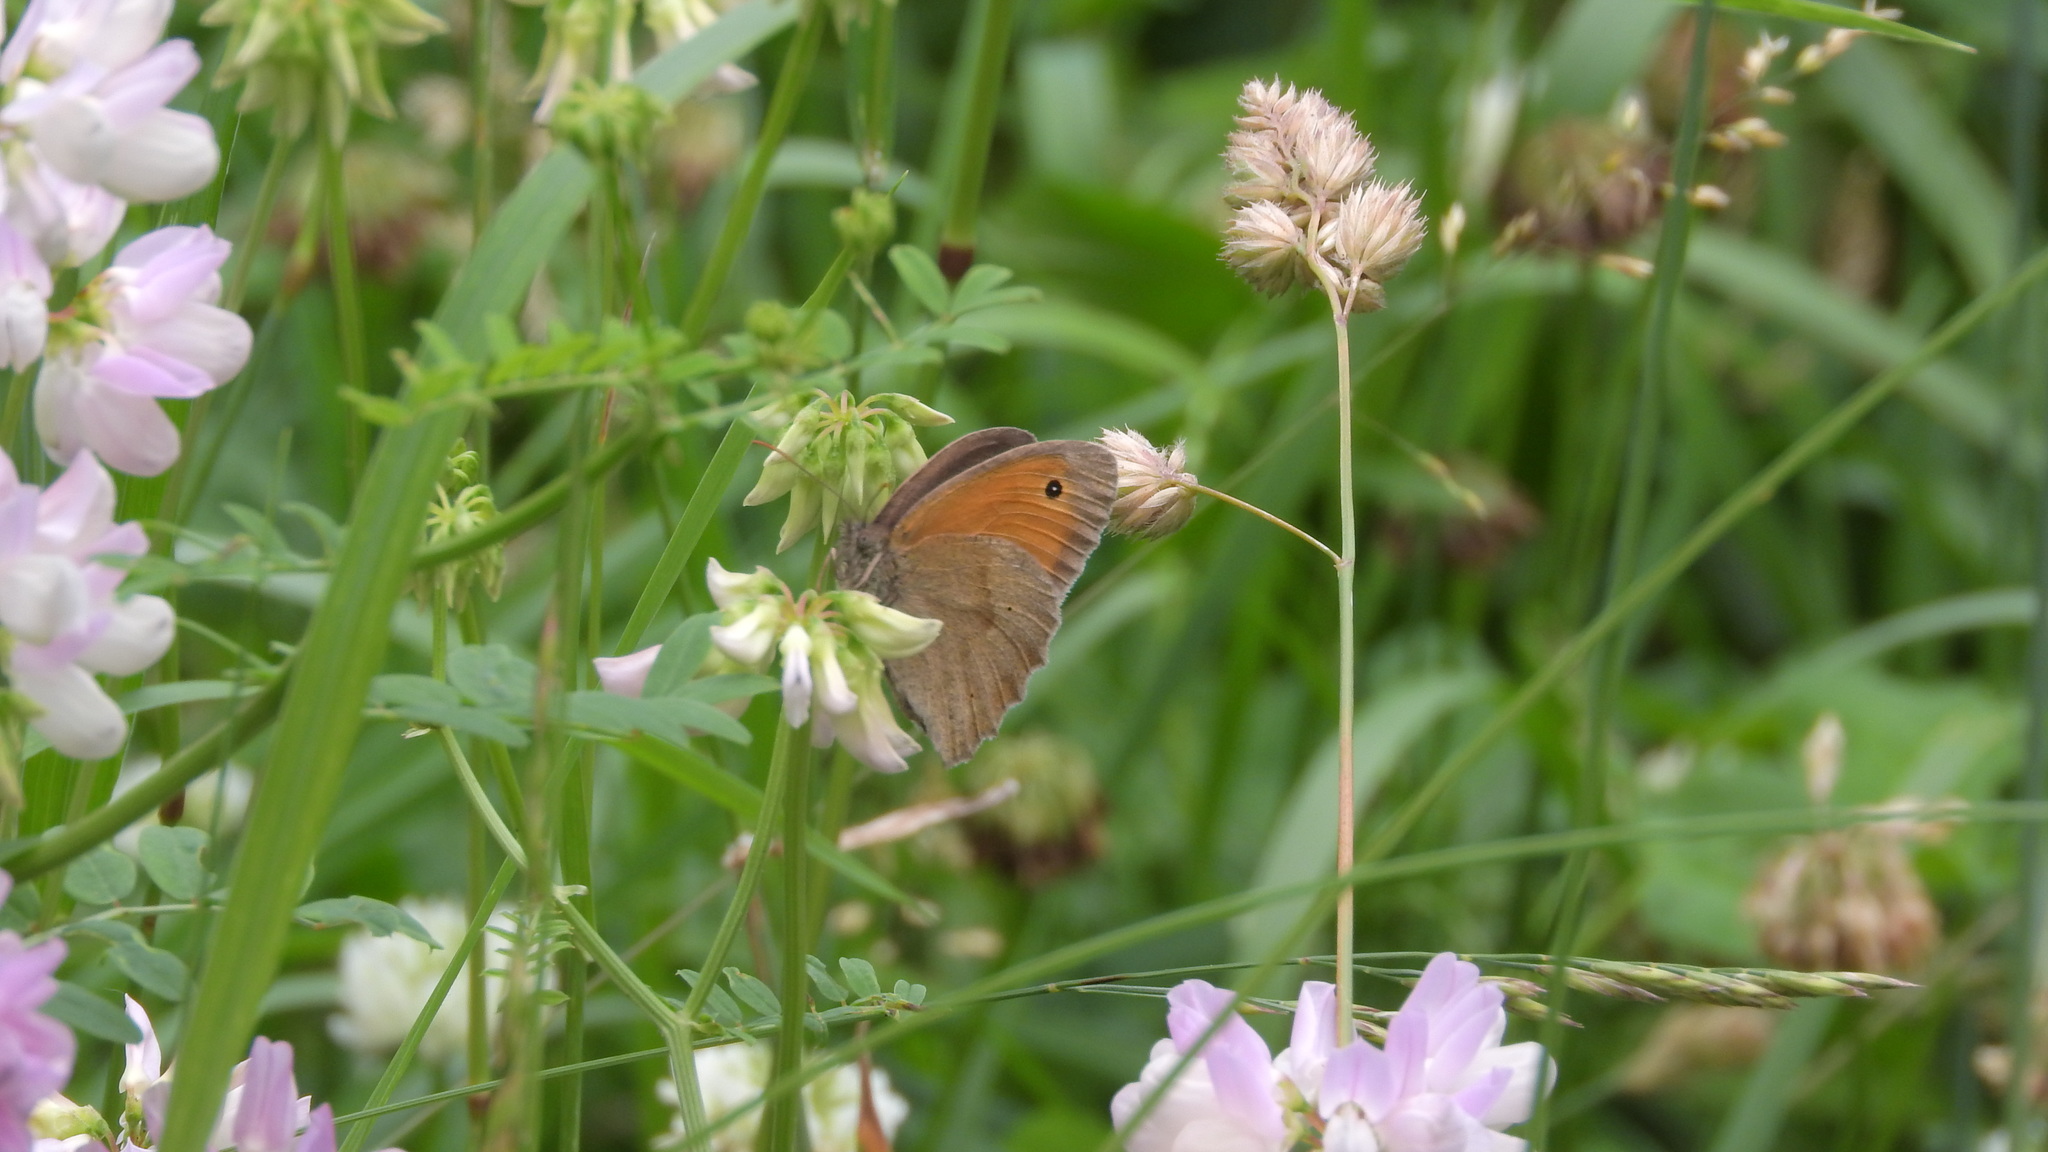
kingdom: Animalia
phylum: Arthropoda
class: Insecta
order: Lepidoptera
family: Nymphalidae
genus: Maniola
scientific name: Maniola jurtina
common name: Meadow brown
